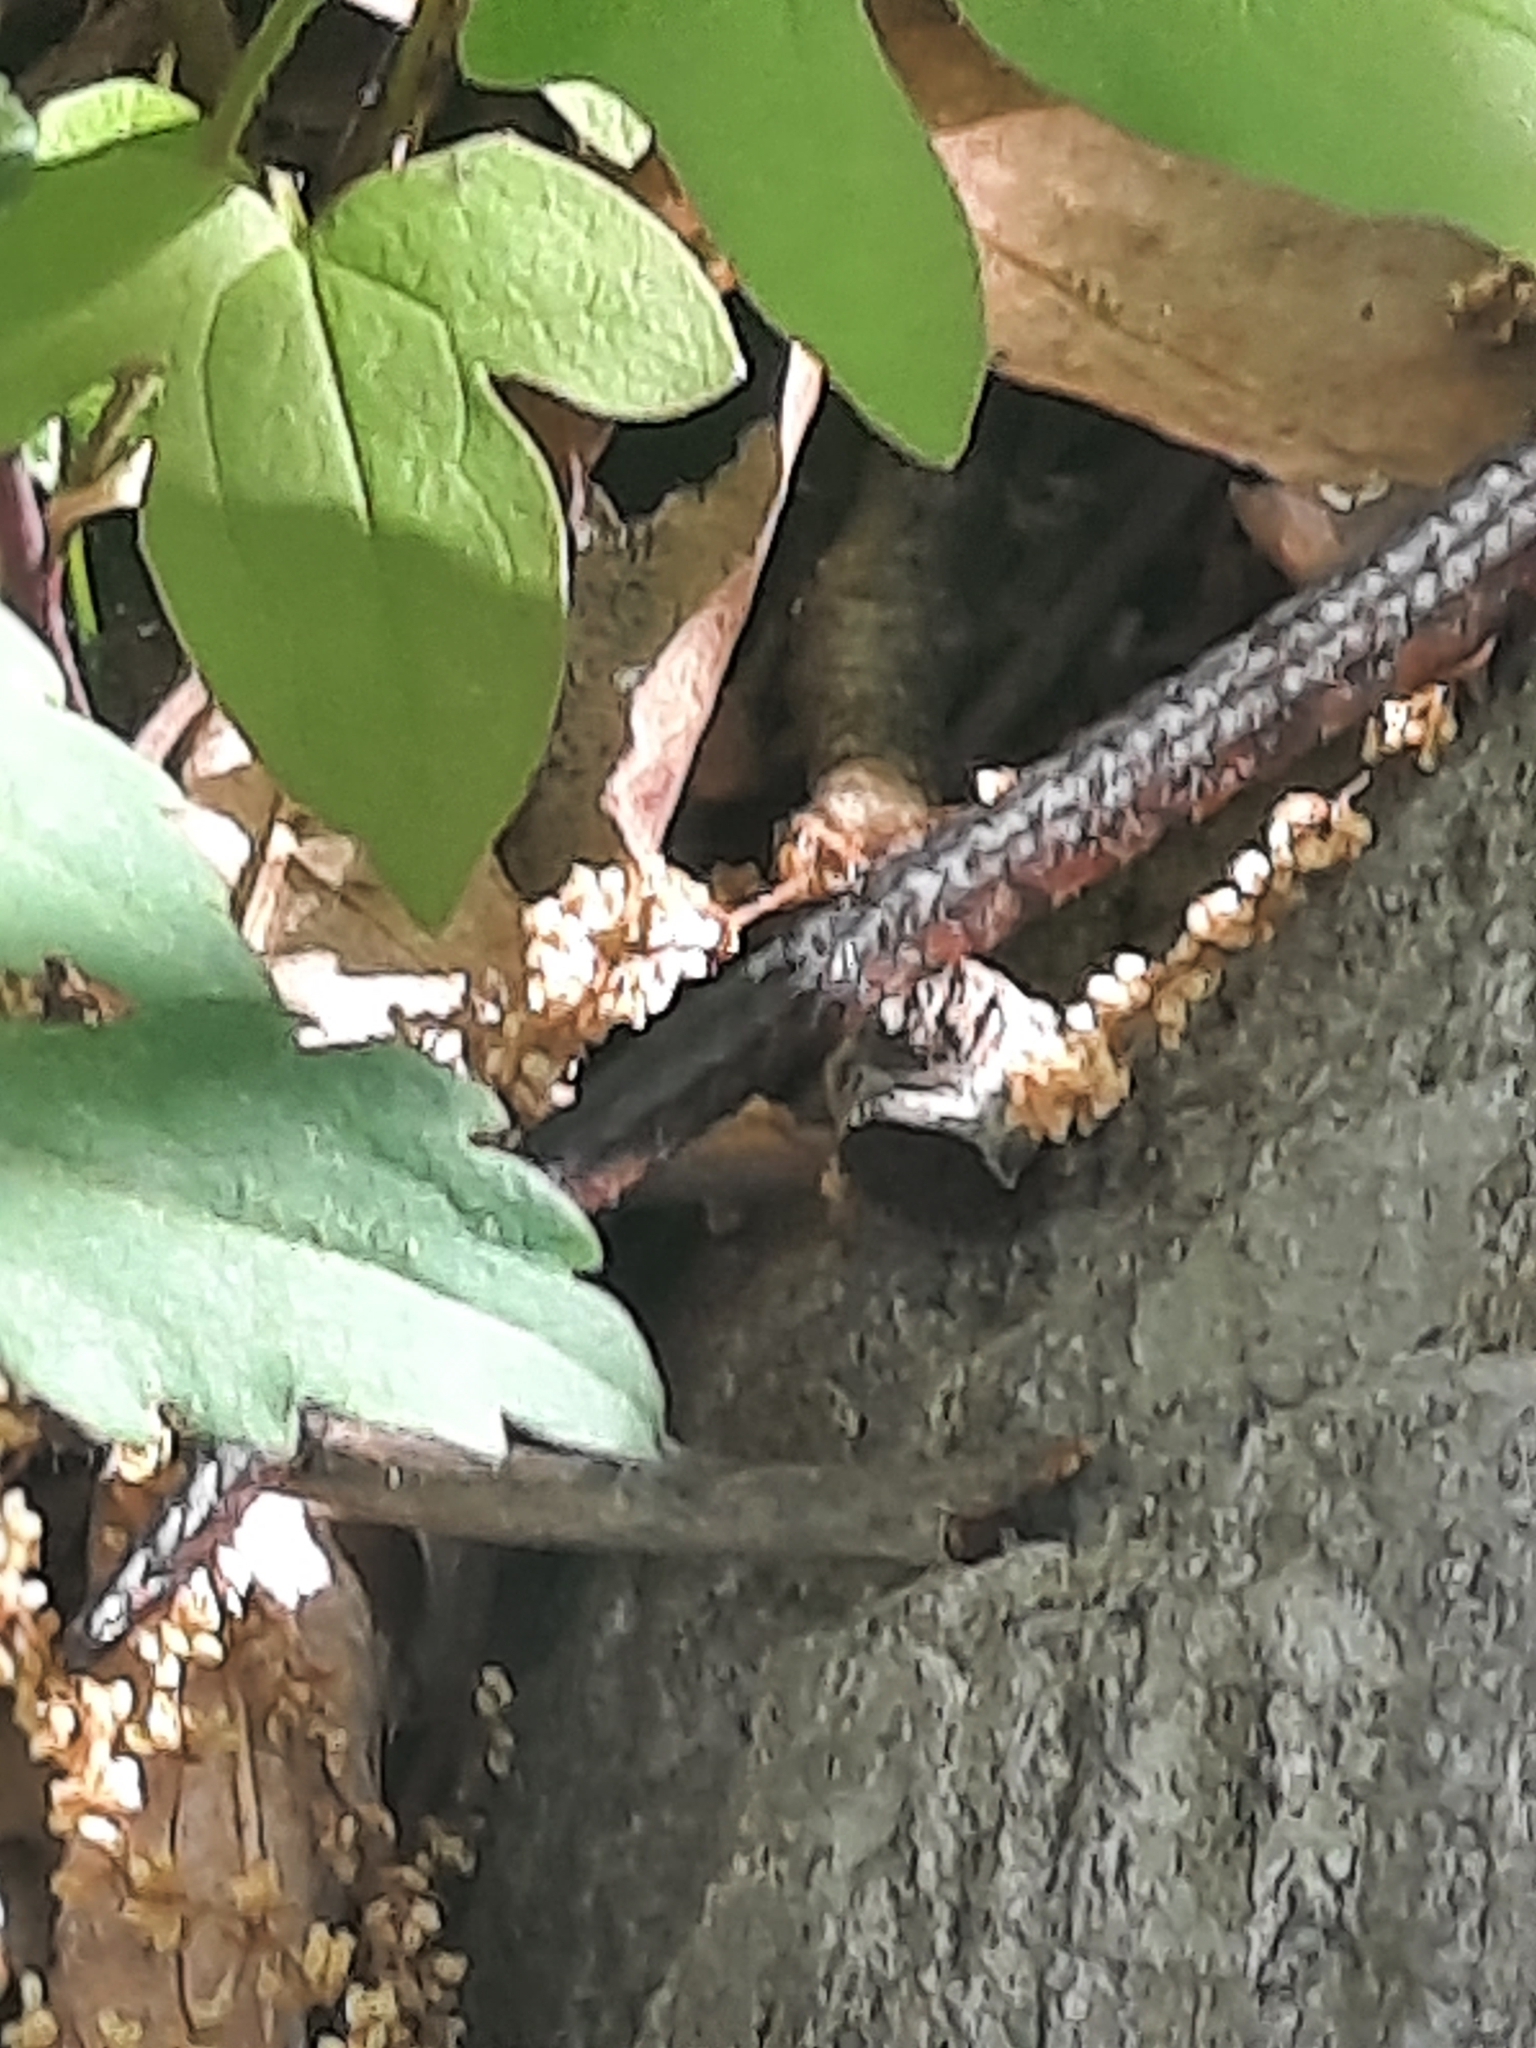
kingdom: Animalia
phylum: Chordata
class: Squamata
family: Colubridae
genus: Nerodia
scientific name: Nerodia sipedon
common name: Northern water snake
